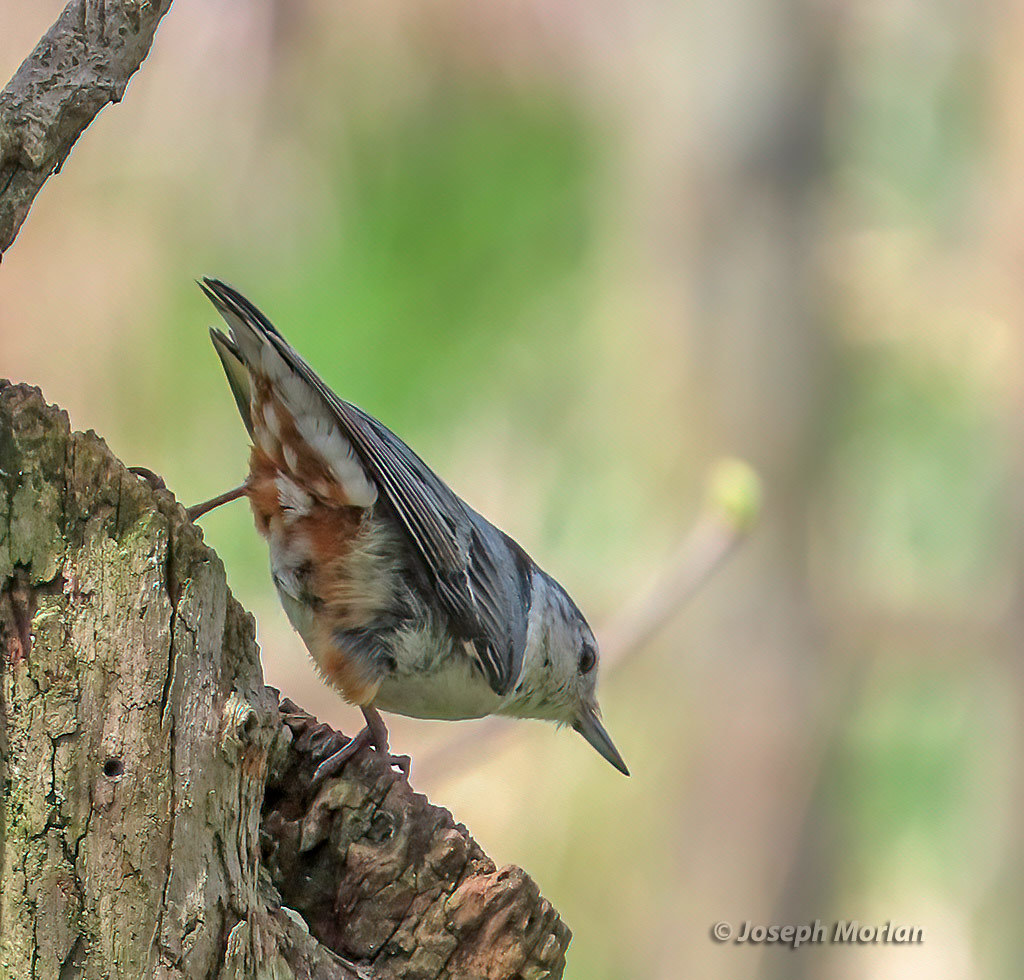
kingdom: Animalia
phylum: Chordata
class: Aves
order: Passeriformes
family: Sittidae
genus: Sitta
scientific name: Sitta carolinensis
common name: White-breasted nuthatch
